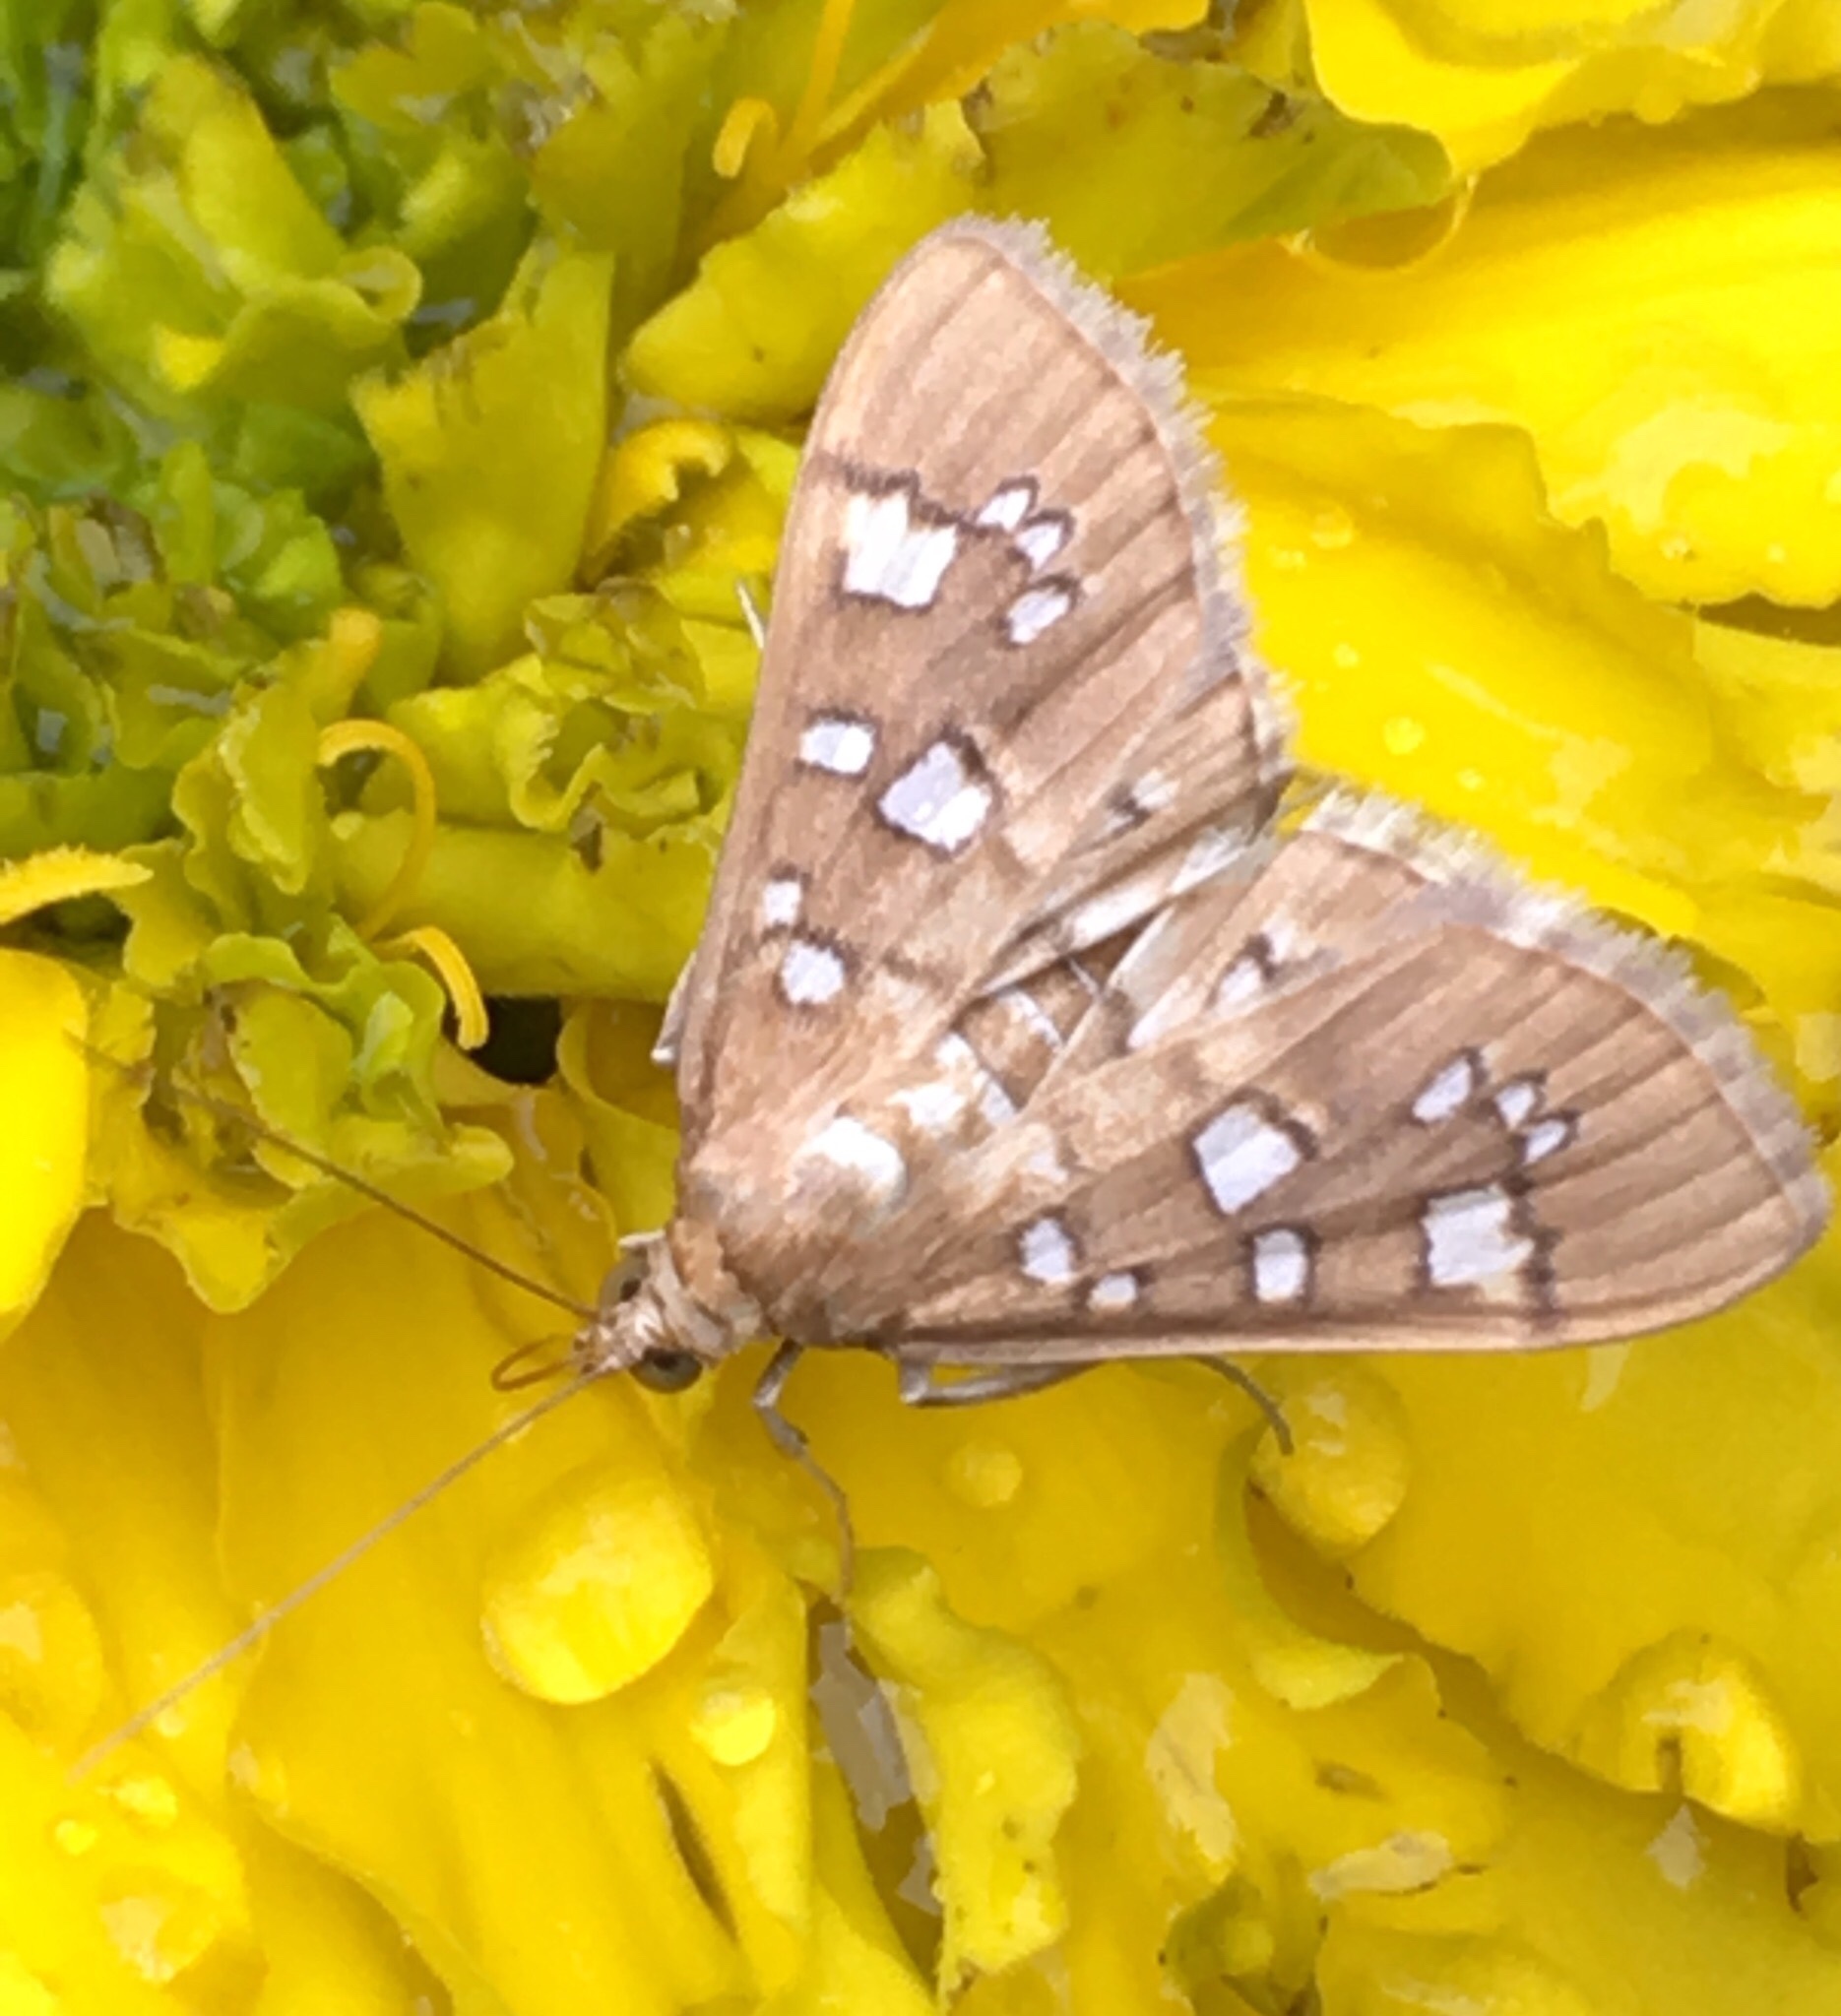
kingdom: Animalia
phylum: Arthropoda
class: Insecta
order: Lepidoptera
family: Crambidae
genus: Samea
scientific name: Samea baccatalis
